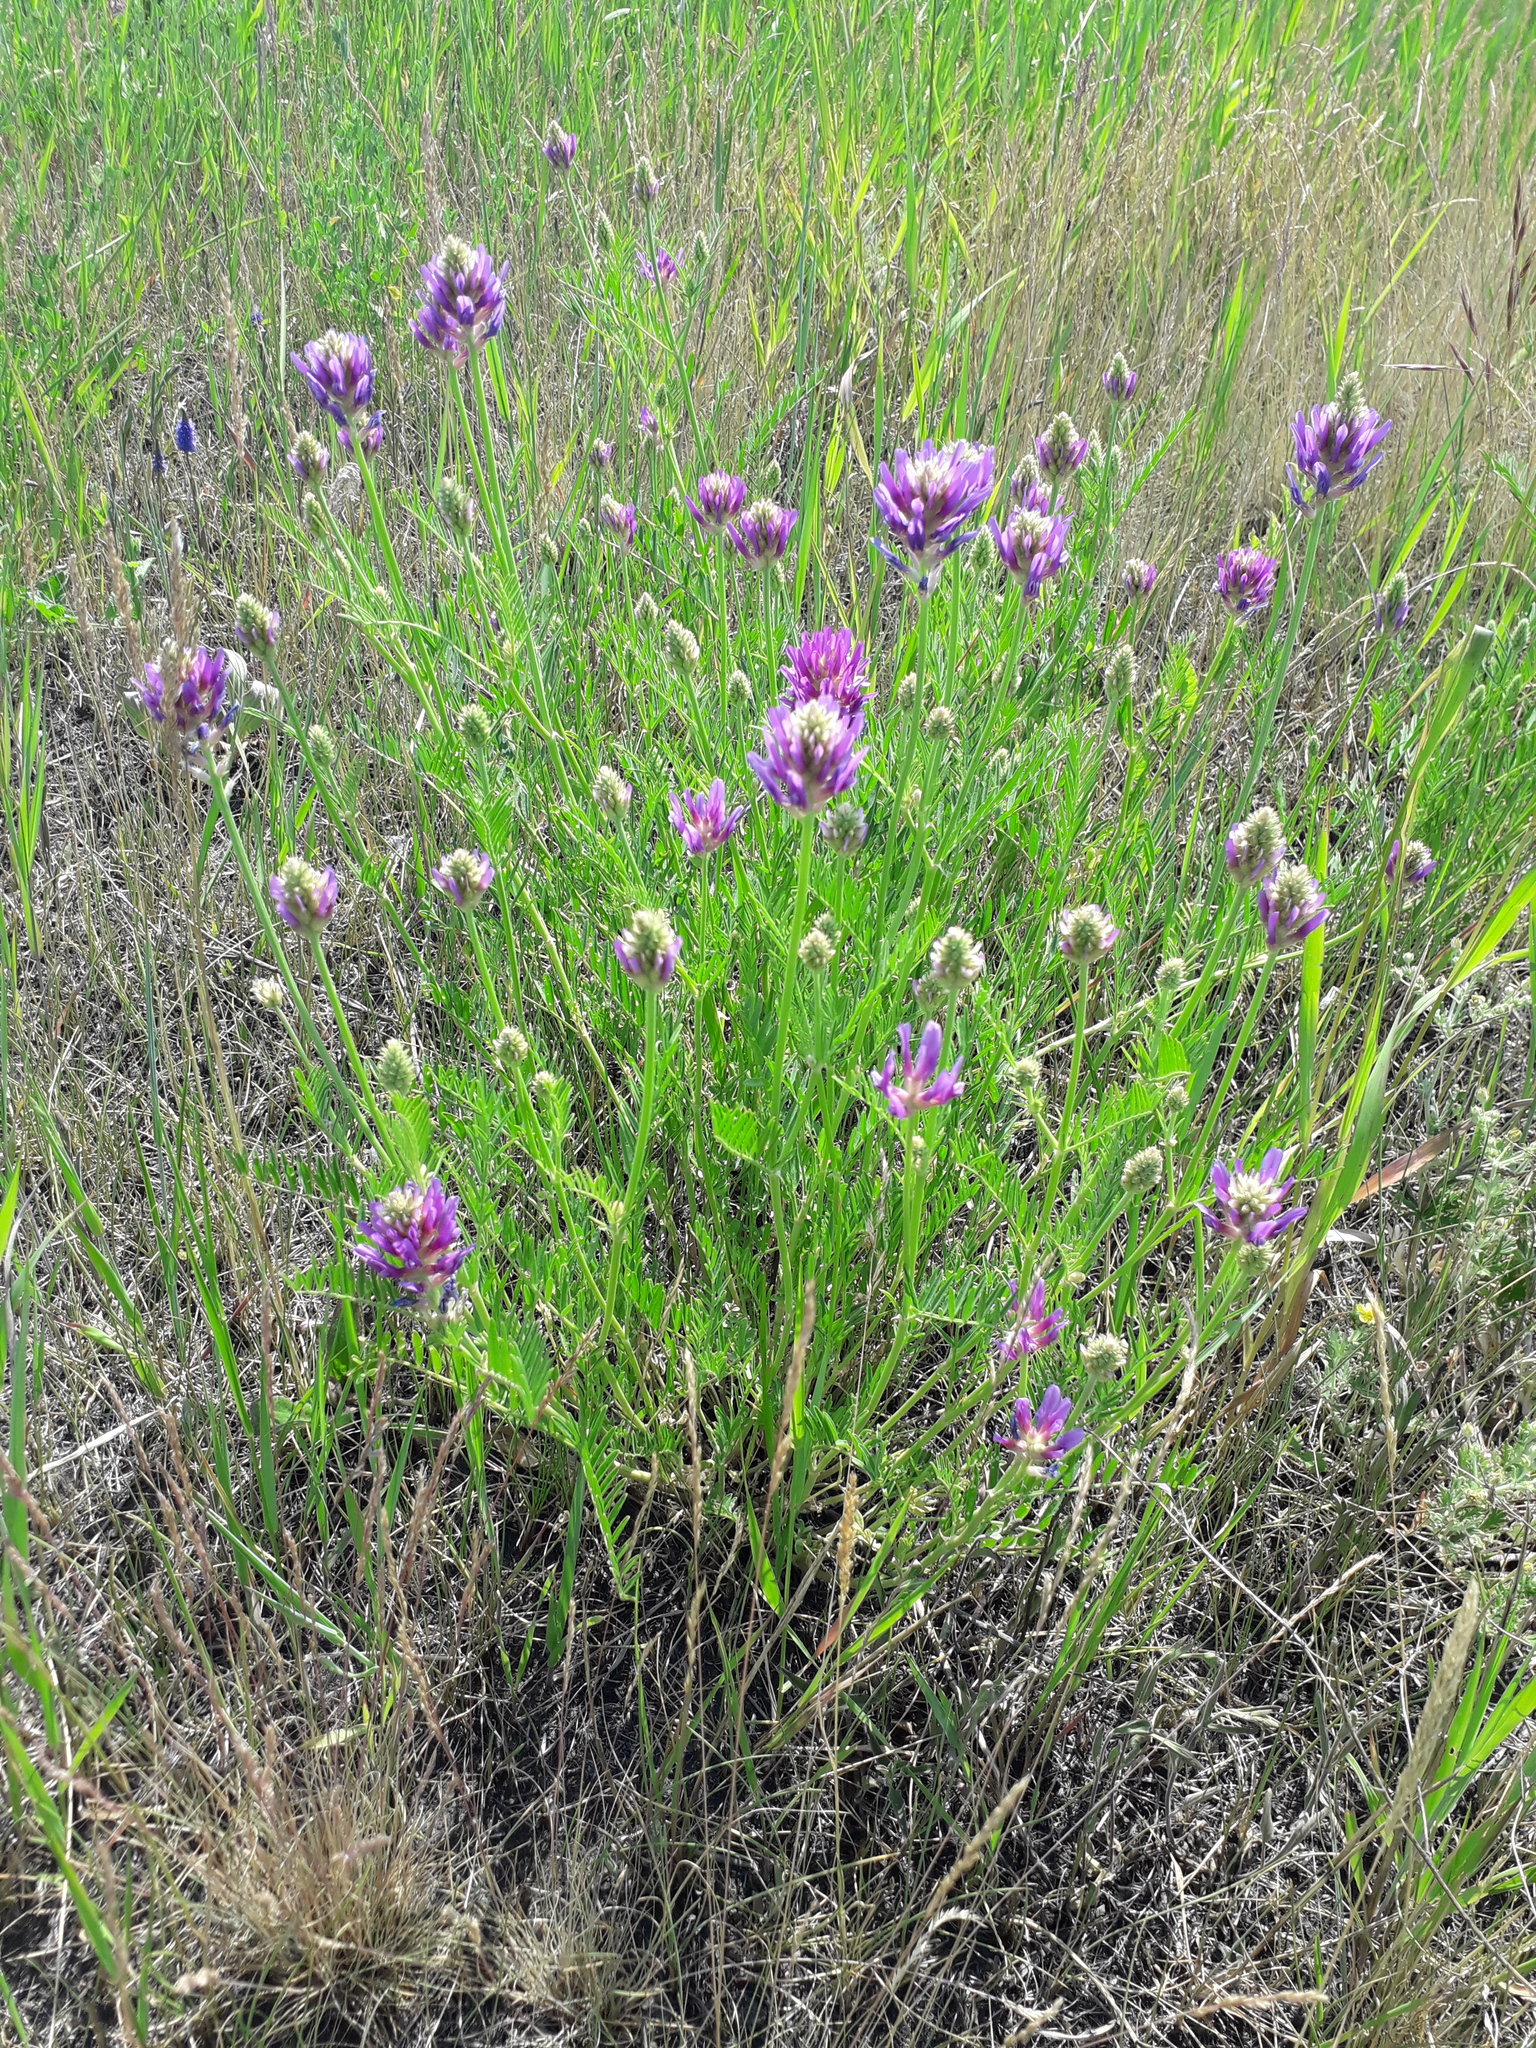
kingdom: Plantae
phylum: Tracheophyta
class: Magnoliopsida
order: Fabales
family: Fabaceae
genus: Astragalus
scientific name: Astragalus onobrychis
